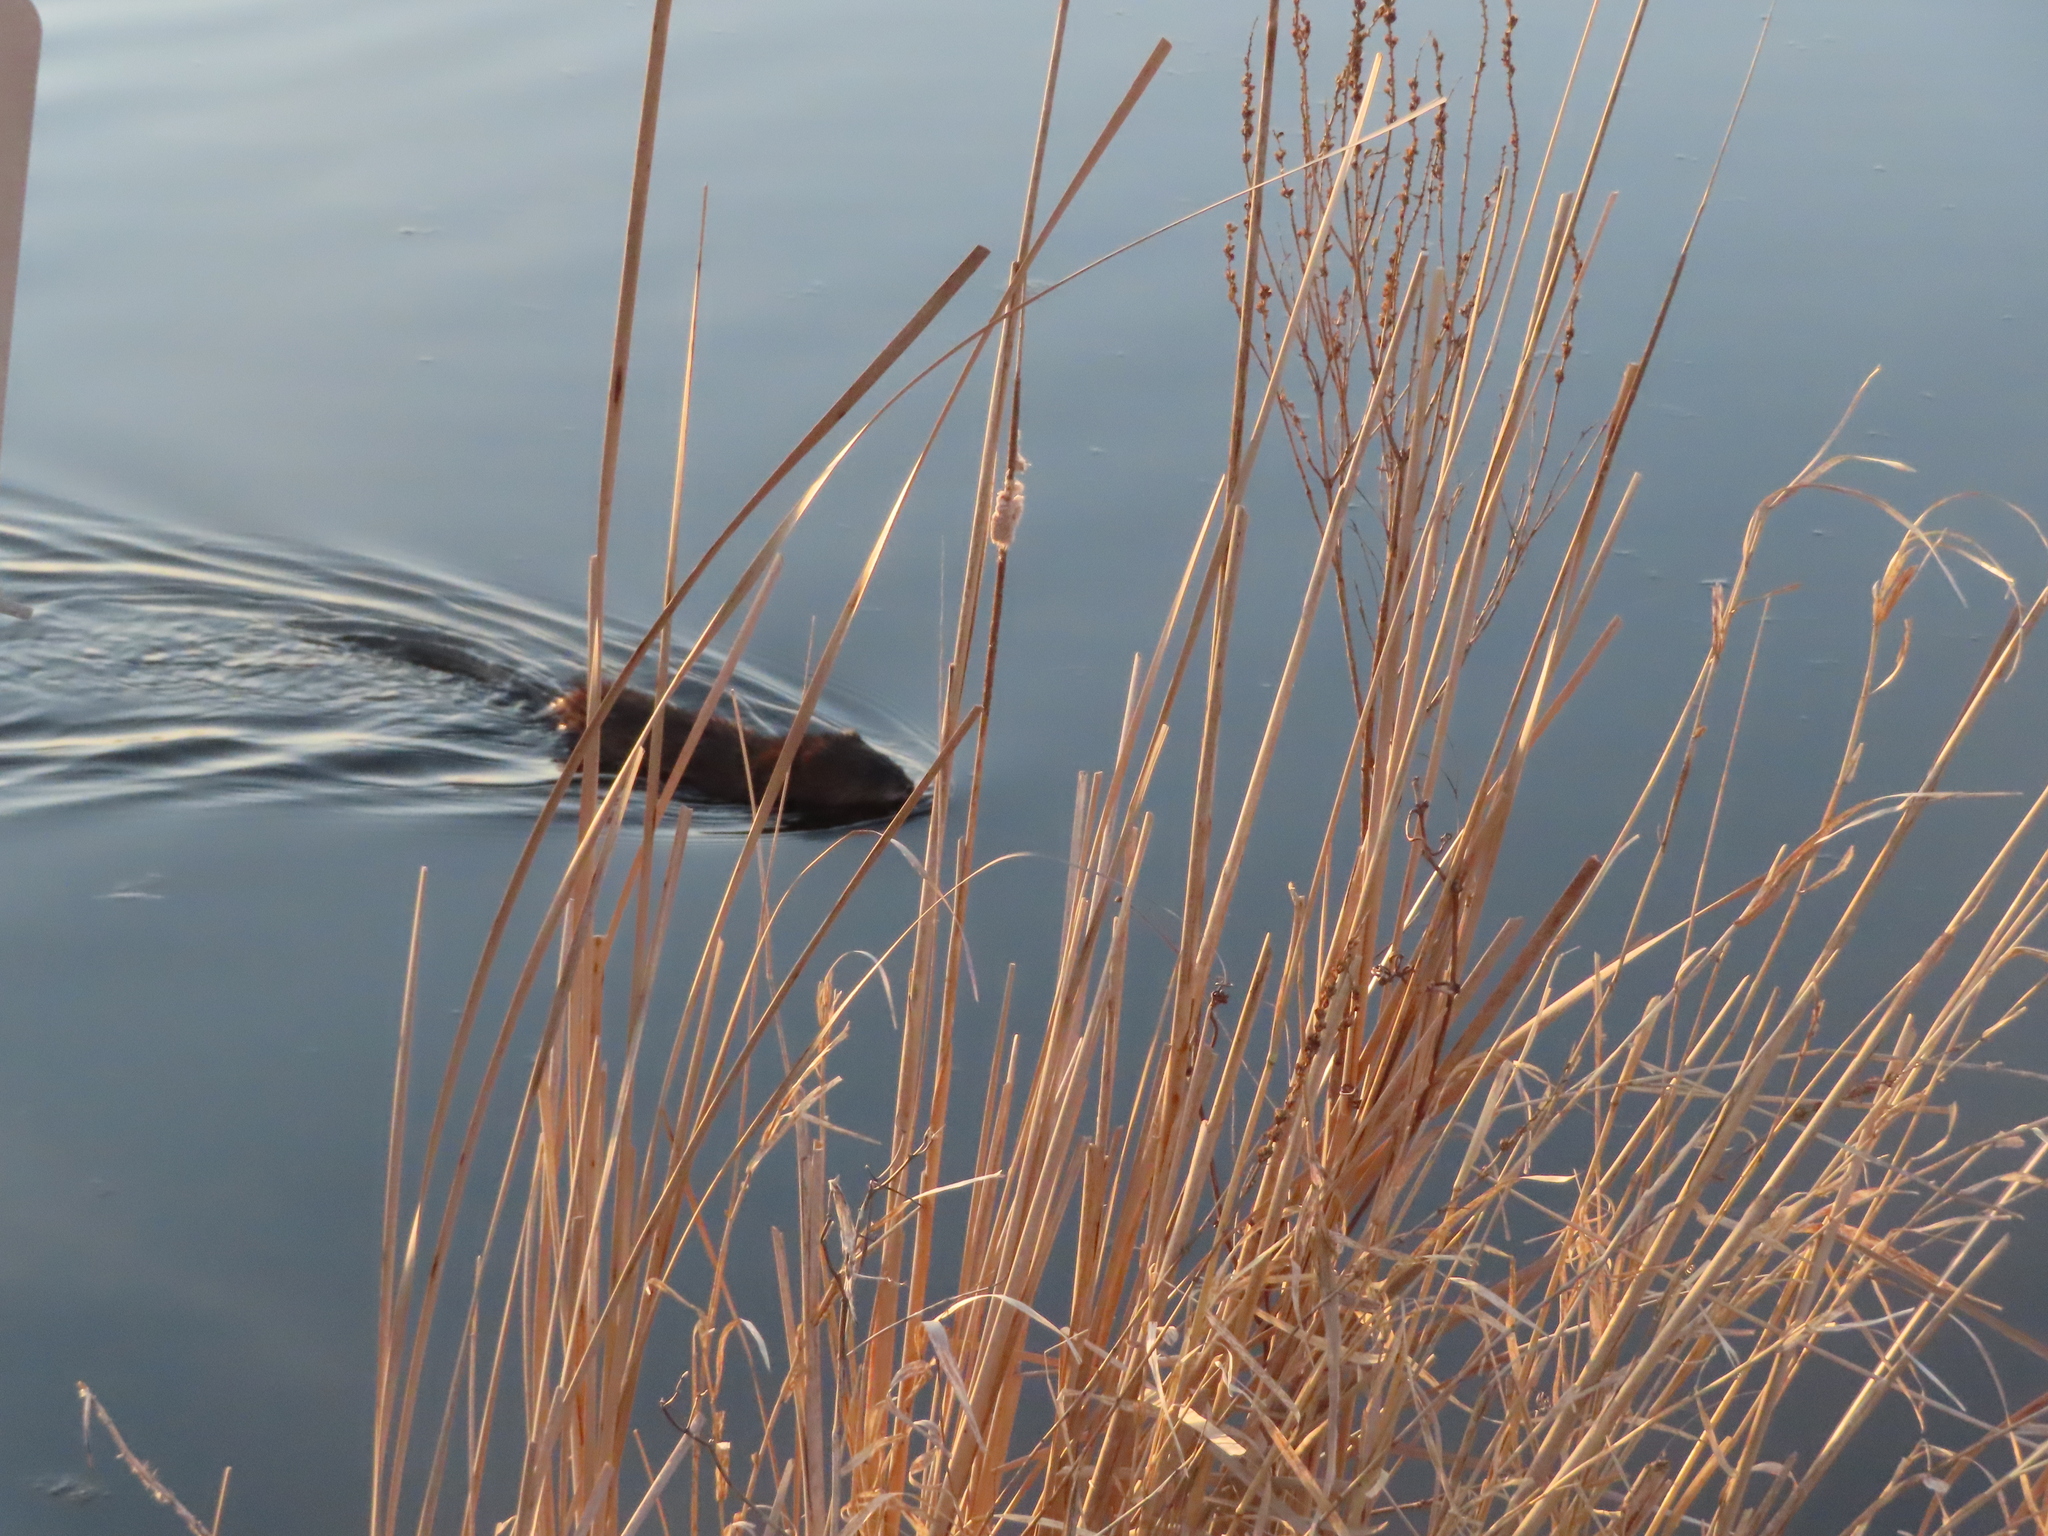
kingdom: Animalia
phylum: Chordata
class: Mammalia
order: Rodentia
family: Cricetidae
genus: Ondatra
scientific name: Ondatra zibethicus
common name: Muskrat
